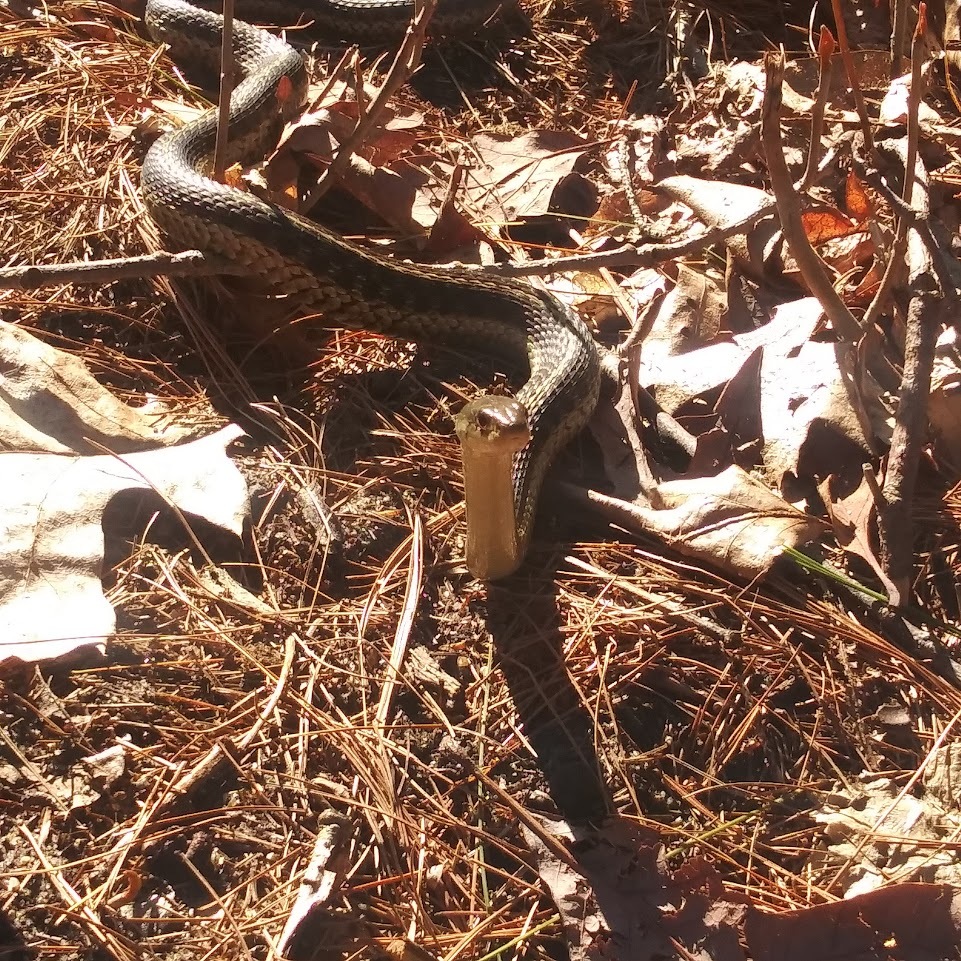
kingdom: Animalia
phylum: Chordata
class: Squamata
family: Colubridae
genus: Thamnophis
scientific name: Thamnophis sirtalis
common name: Common garter snake
